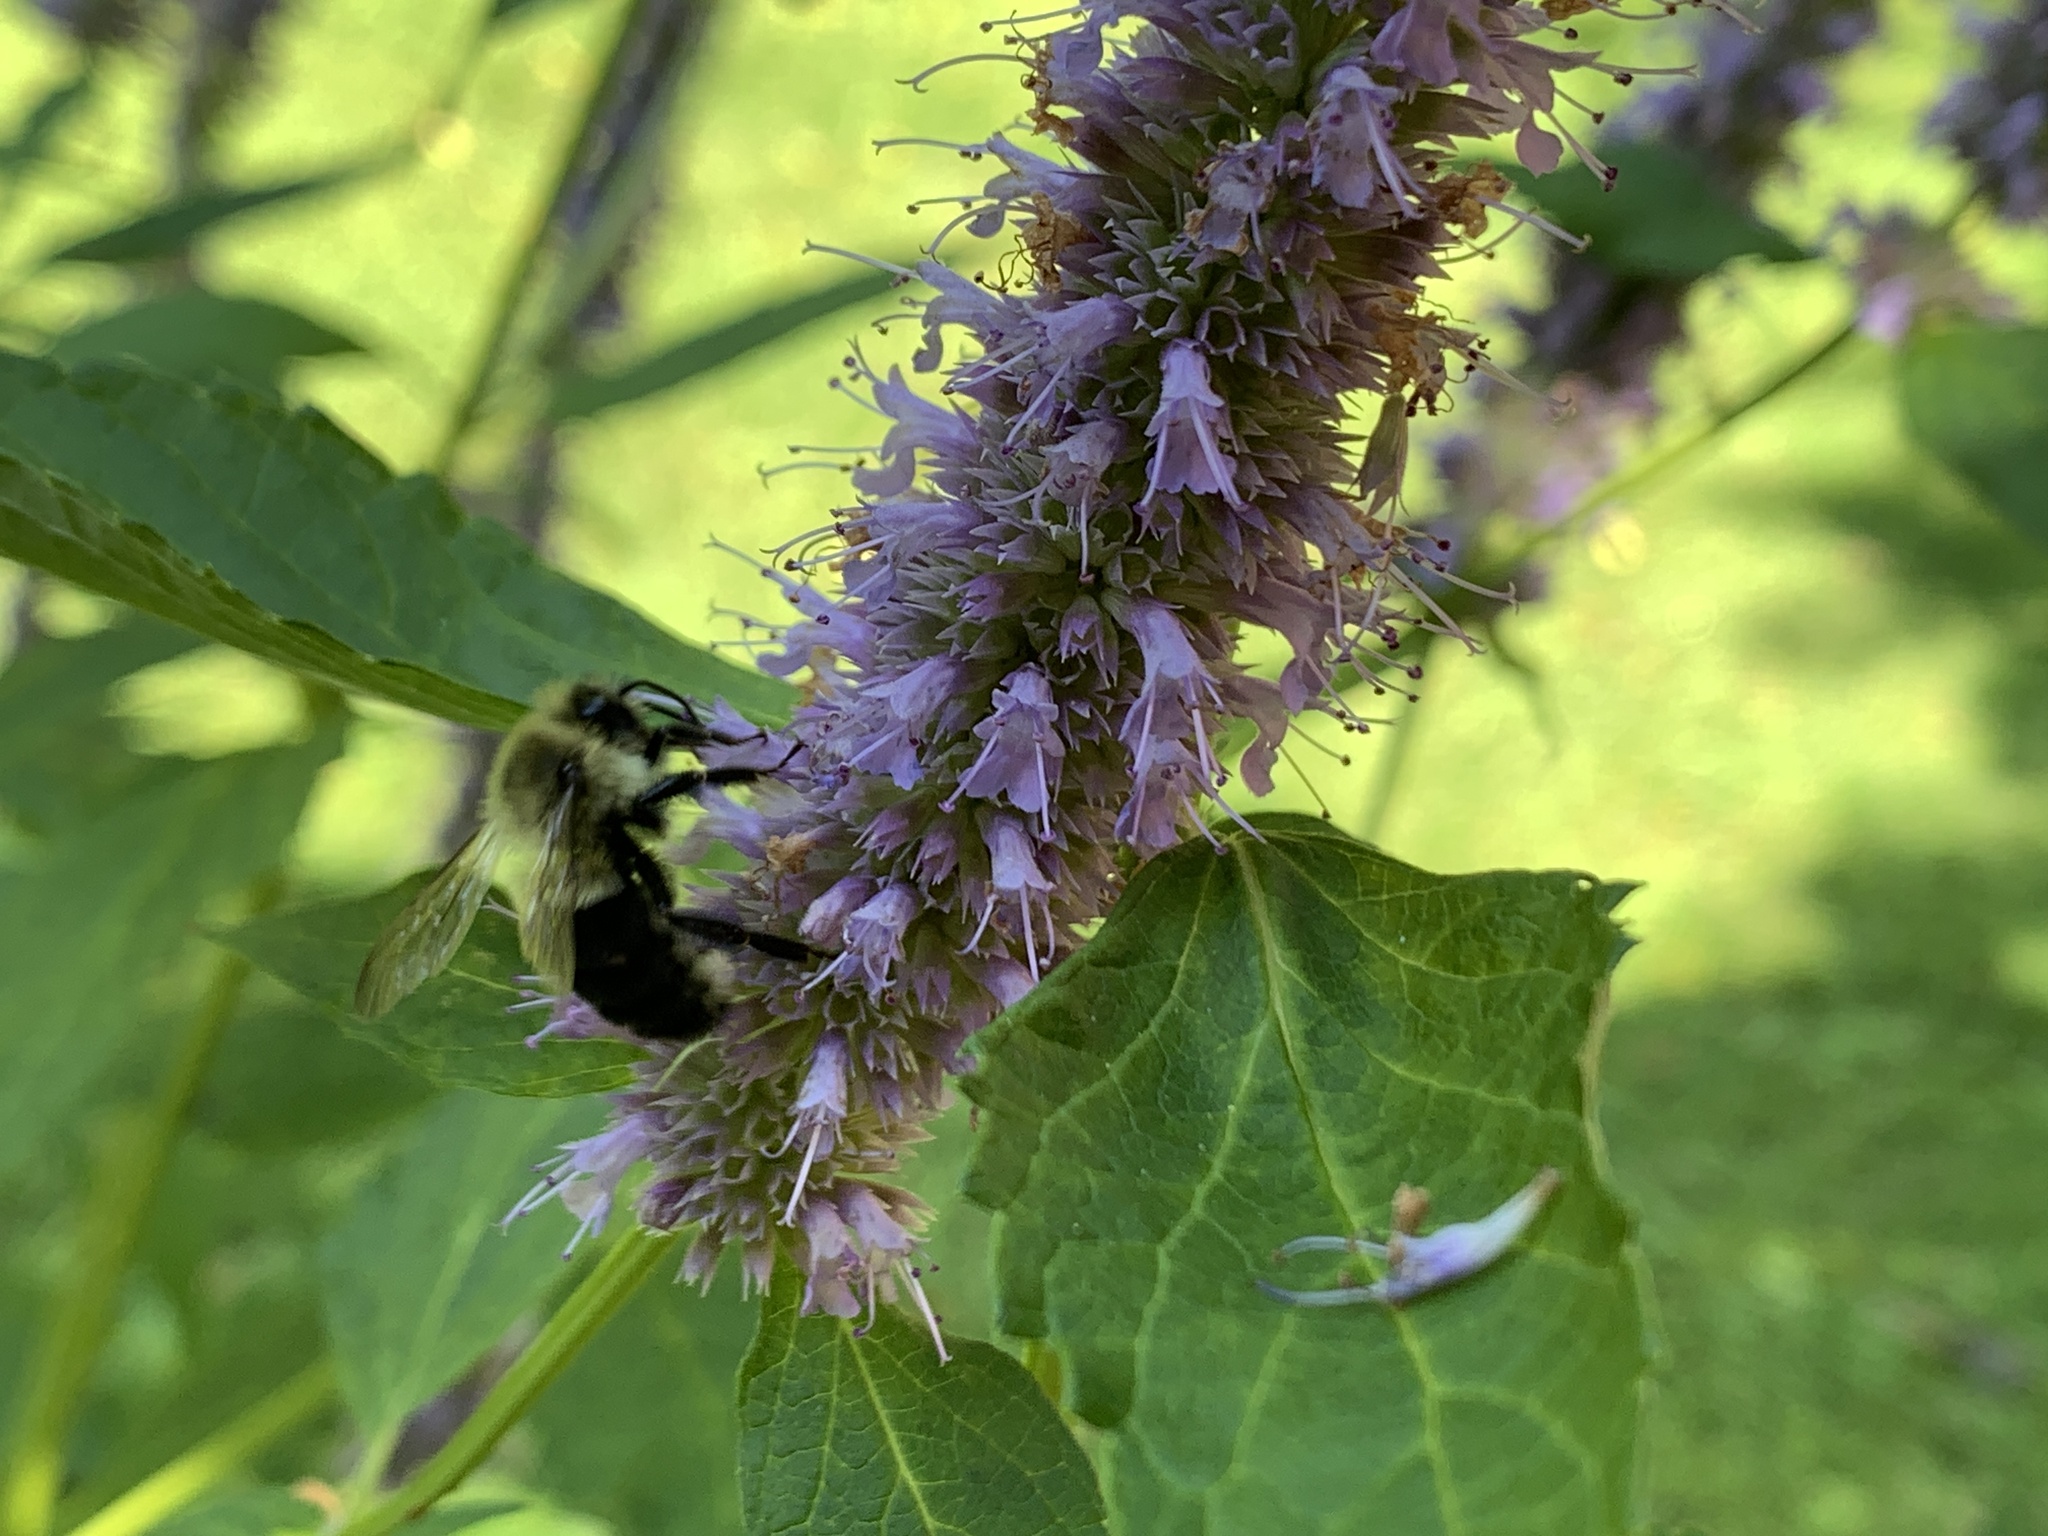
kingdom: Animalia
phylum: Arthropoda
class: Insecta
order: Hymenoptera
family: Apidae
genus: Bombus
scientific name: Bombus impatiens
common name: Common eastern bumble bee
